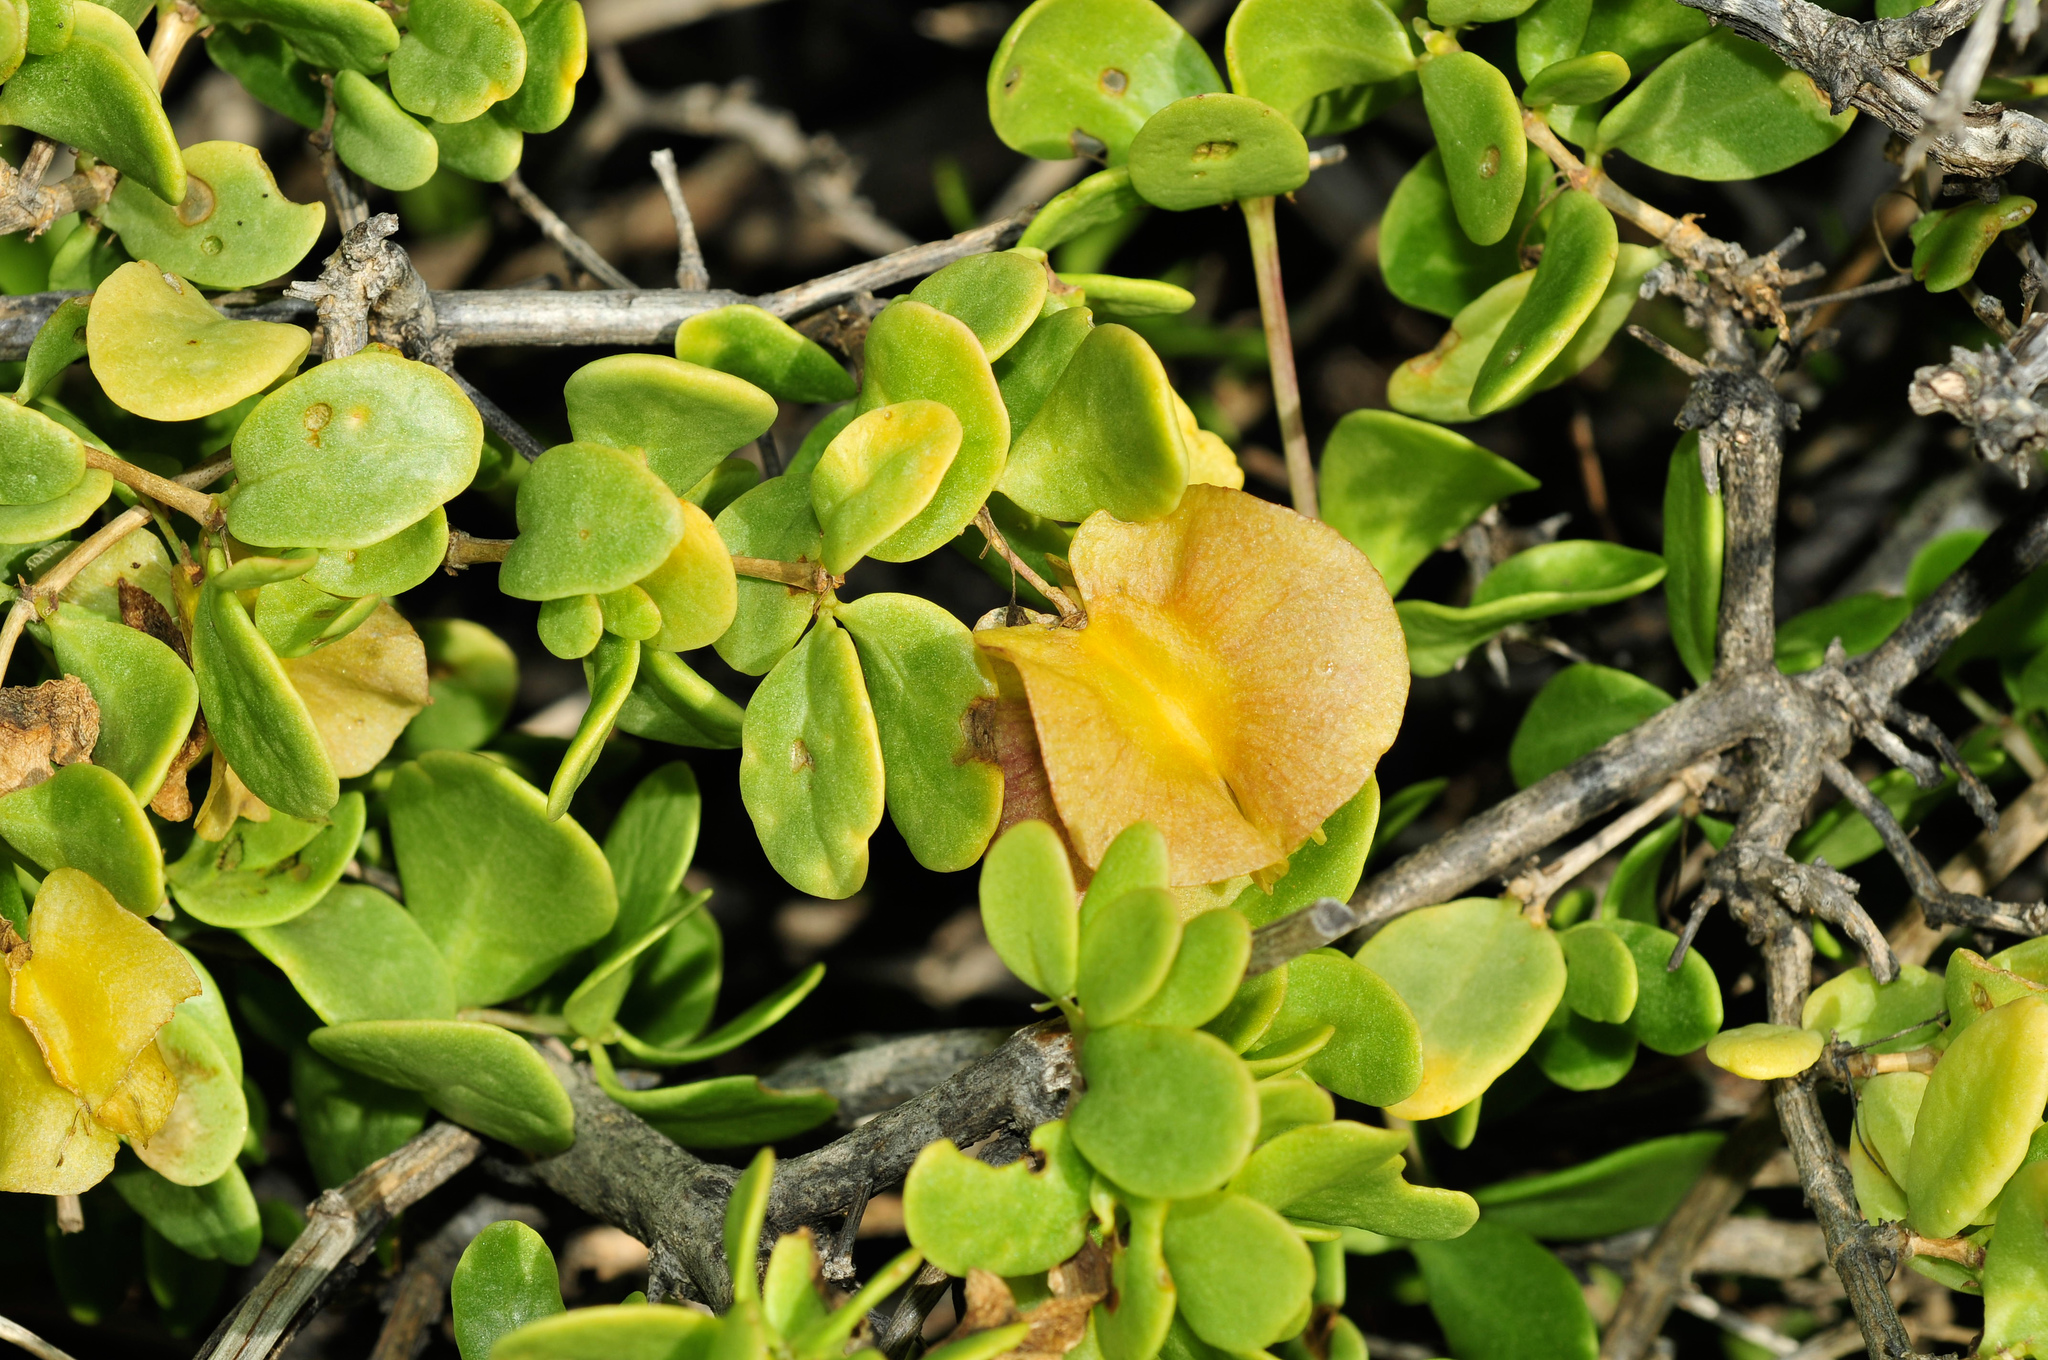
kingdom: Plantae
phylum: Tracheophyta
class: Magnoliopsida
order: Zygophyllales
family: Zygophyllaceae
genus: Roepera
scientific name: Roepera morgsana
